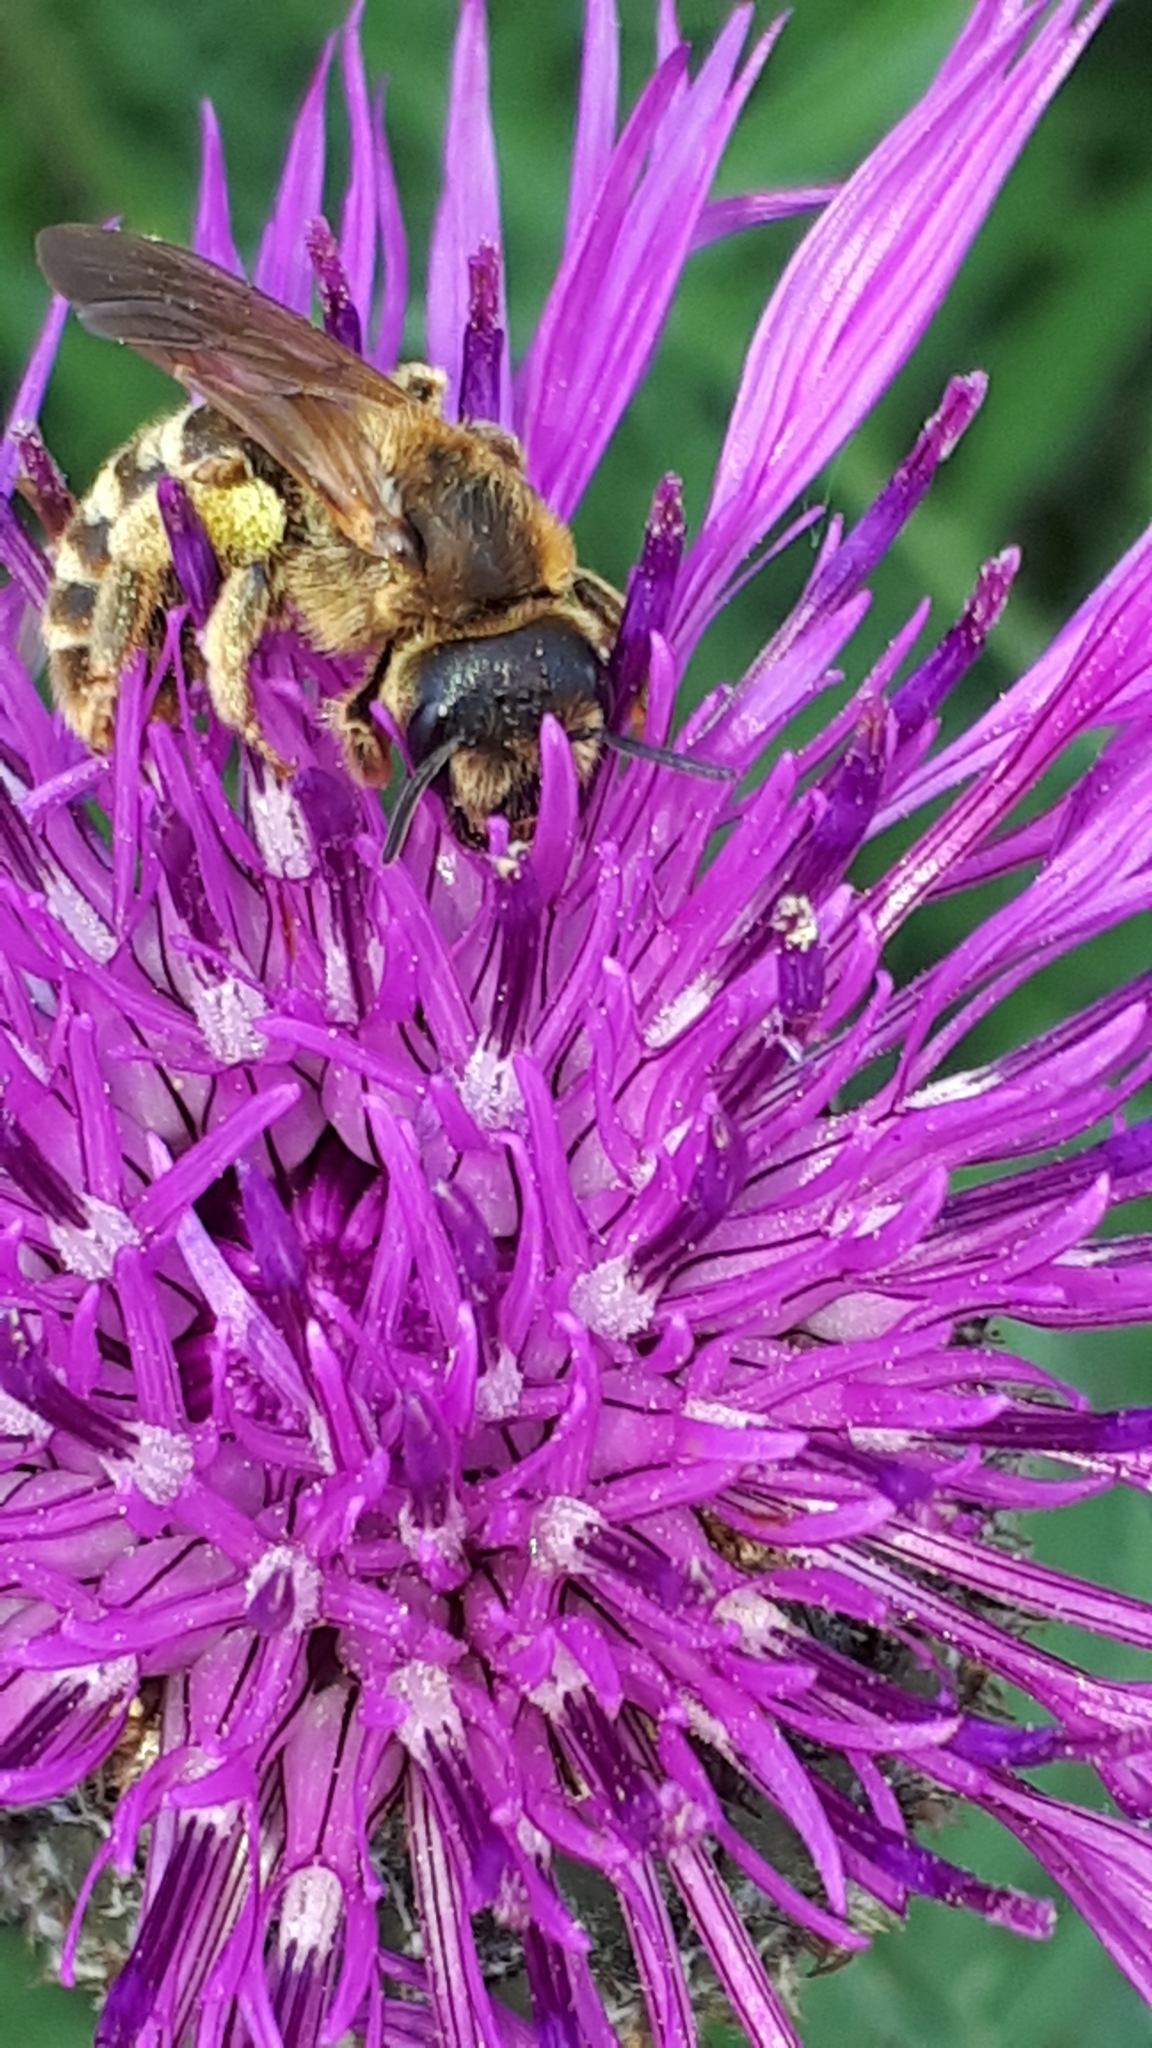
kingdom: Animalia
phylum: Arthropoda
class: Insecta
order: Hymenoptera
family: Halictidae
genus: Halictus
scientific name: Halictus scabiosae
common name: Great banded furrow bee
